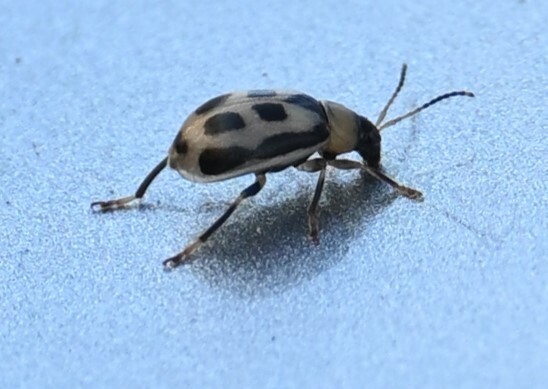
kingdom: Animalia
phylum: Arthropoda
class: Insecta
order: Coleoptera
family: Chrysomelidae
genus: Cerotoma
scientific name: Cerotoma trifurcata
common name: Bean leaf beetle
